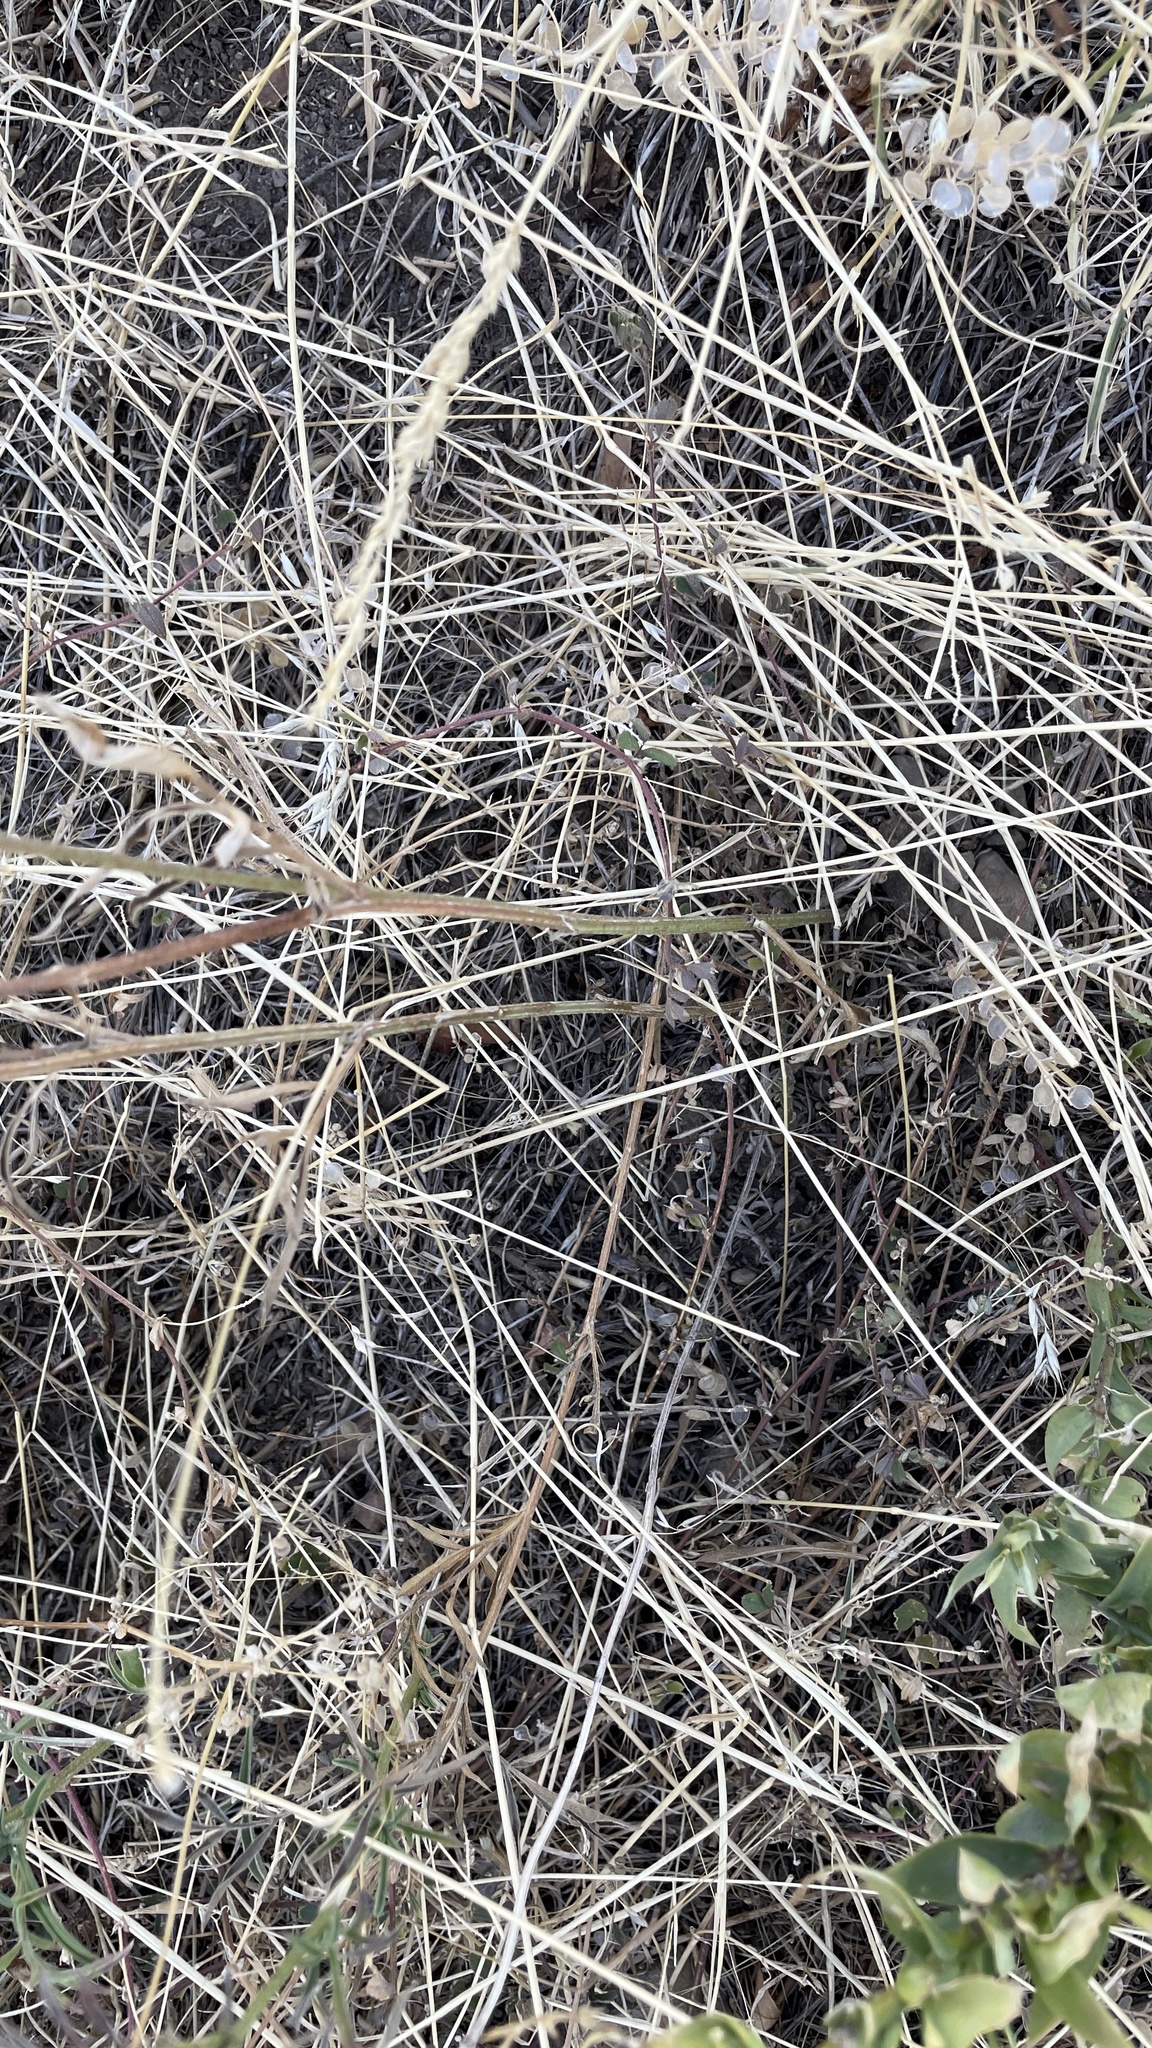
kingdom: Plantae
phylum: Tracheophyta
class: Magnoliopsida
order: Asterales
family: Asteraceae
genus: Ratibida
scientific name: Ratibida columnifera
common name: Prairie coneflower
